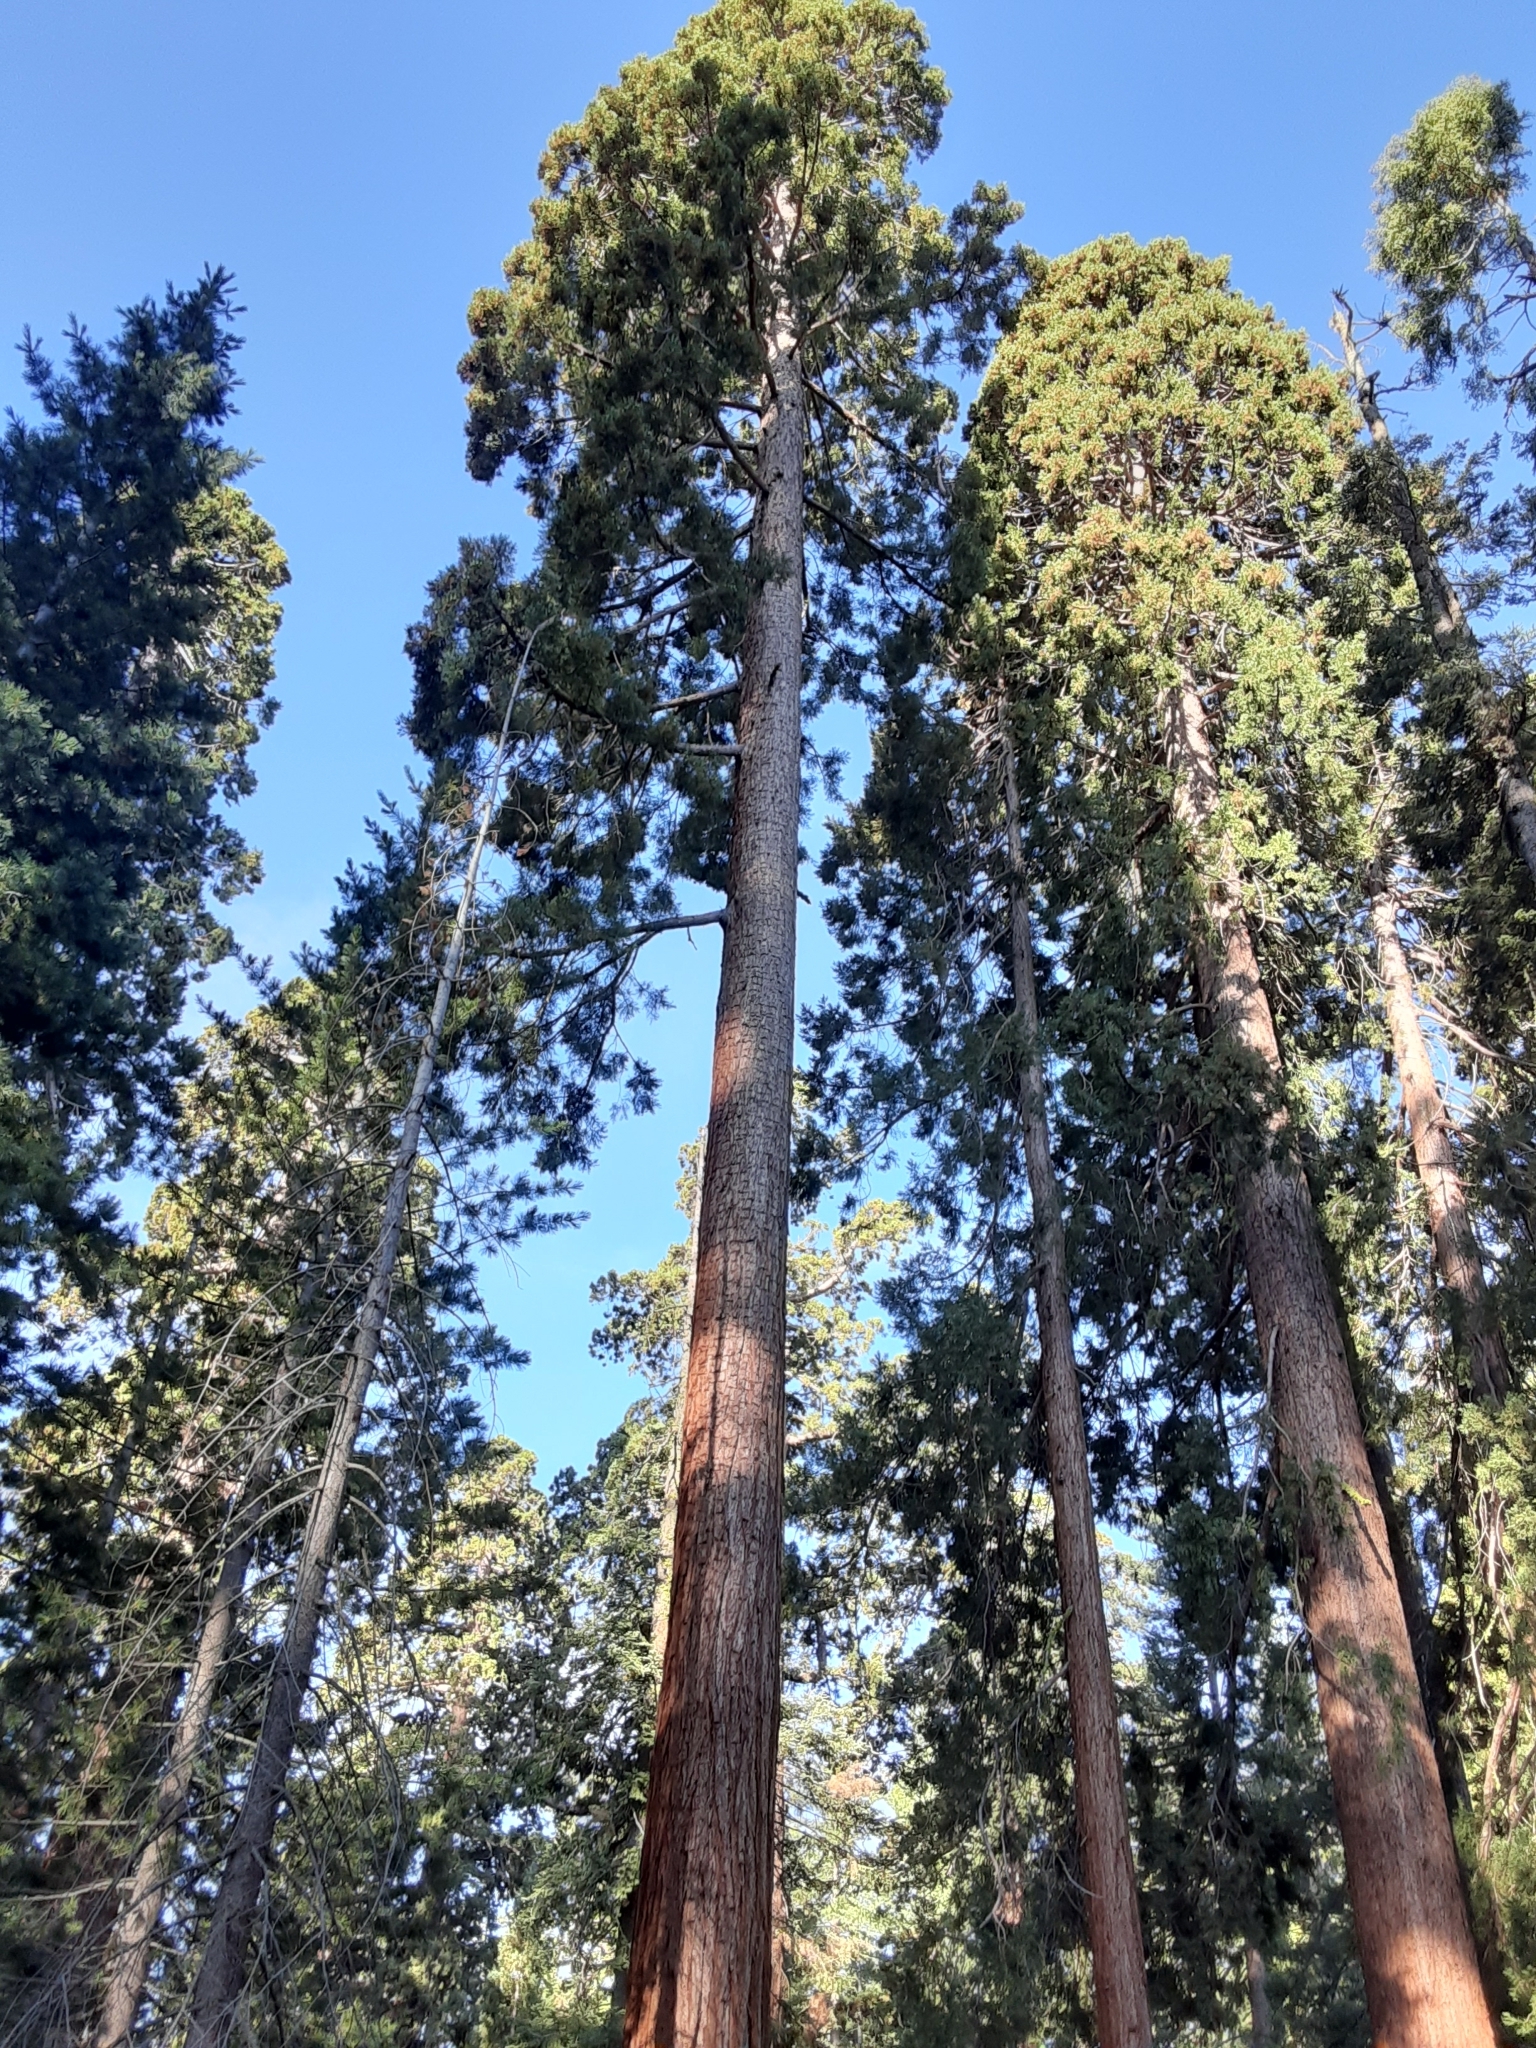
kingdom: Plantae
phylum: Tracheophyta
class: Pinopsida
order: Pinales
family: Cupressaceae
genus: Sequoiadendron
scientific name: Sequoiadendron giganteum
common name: Wellingtonia
